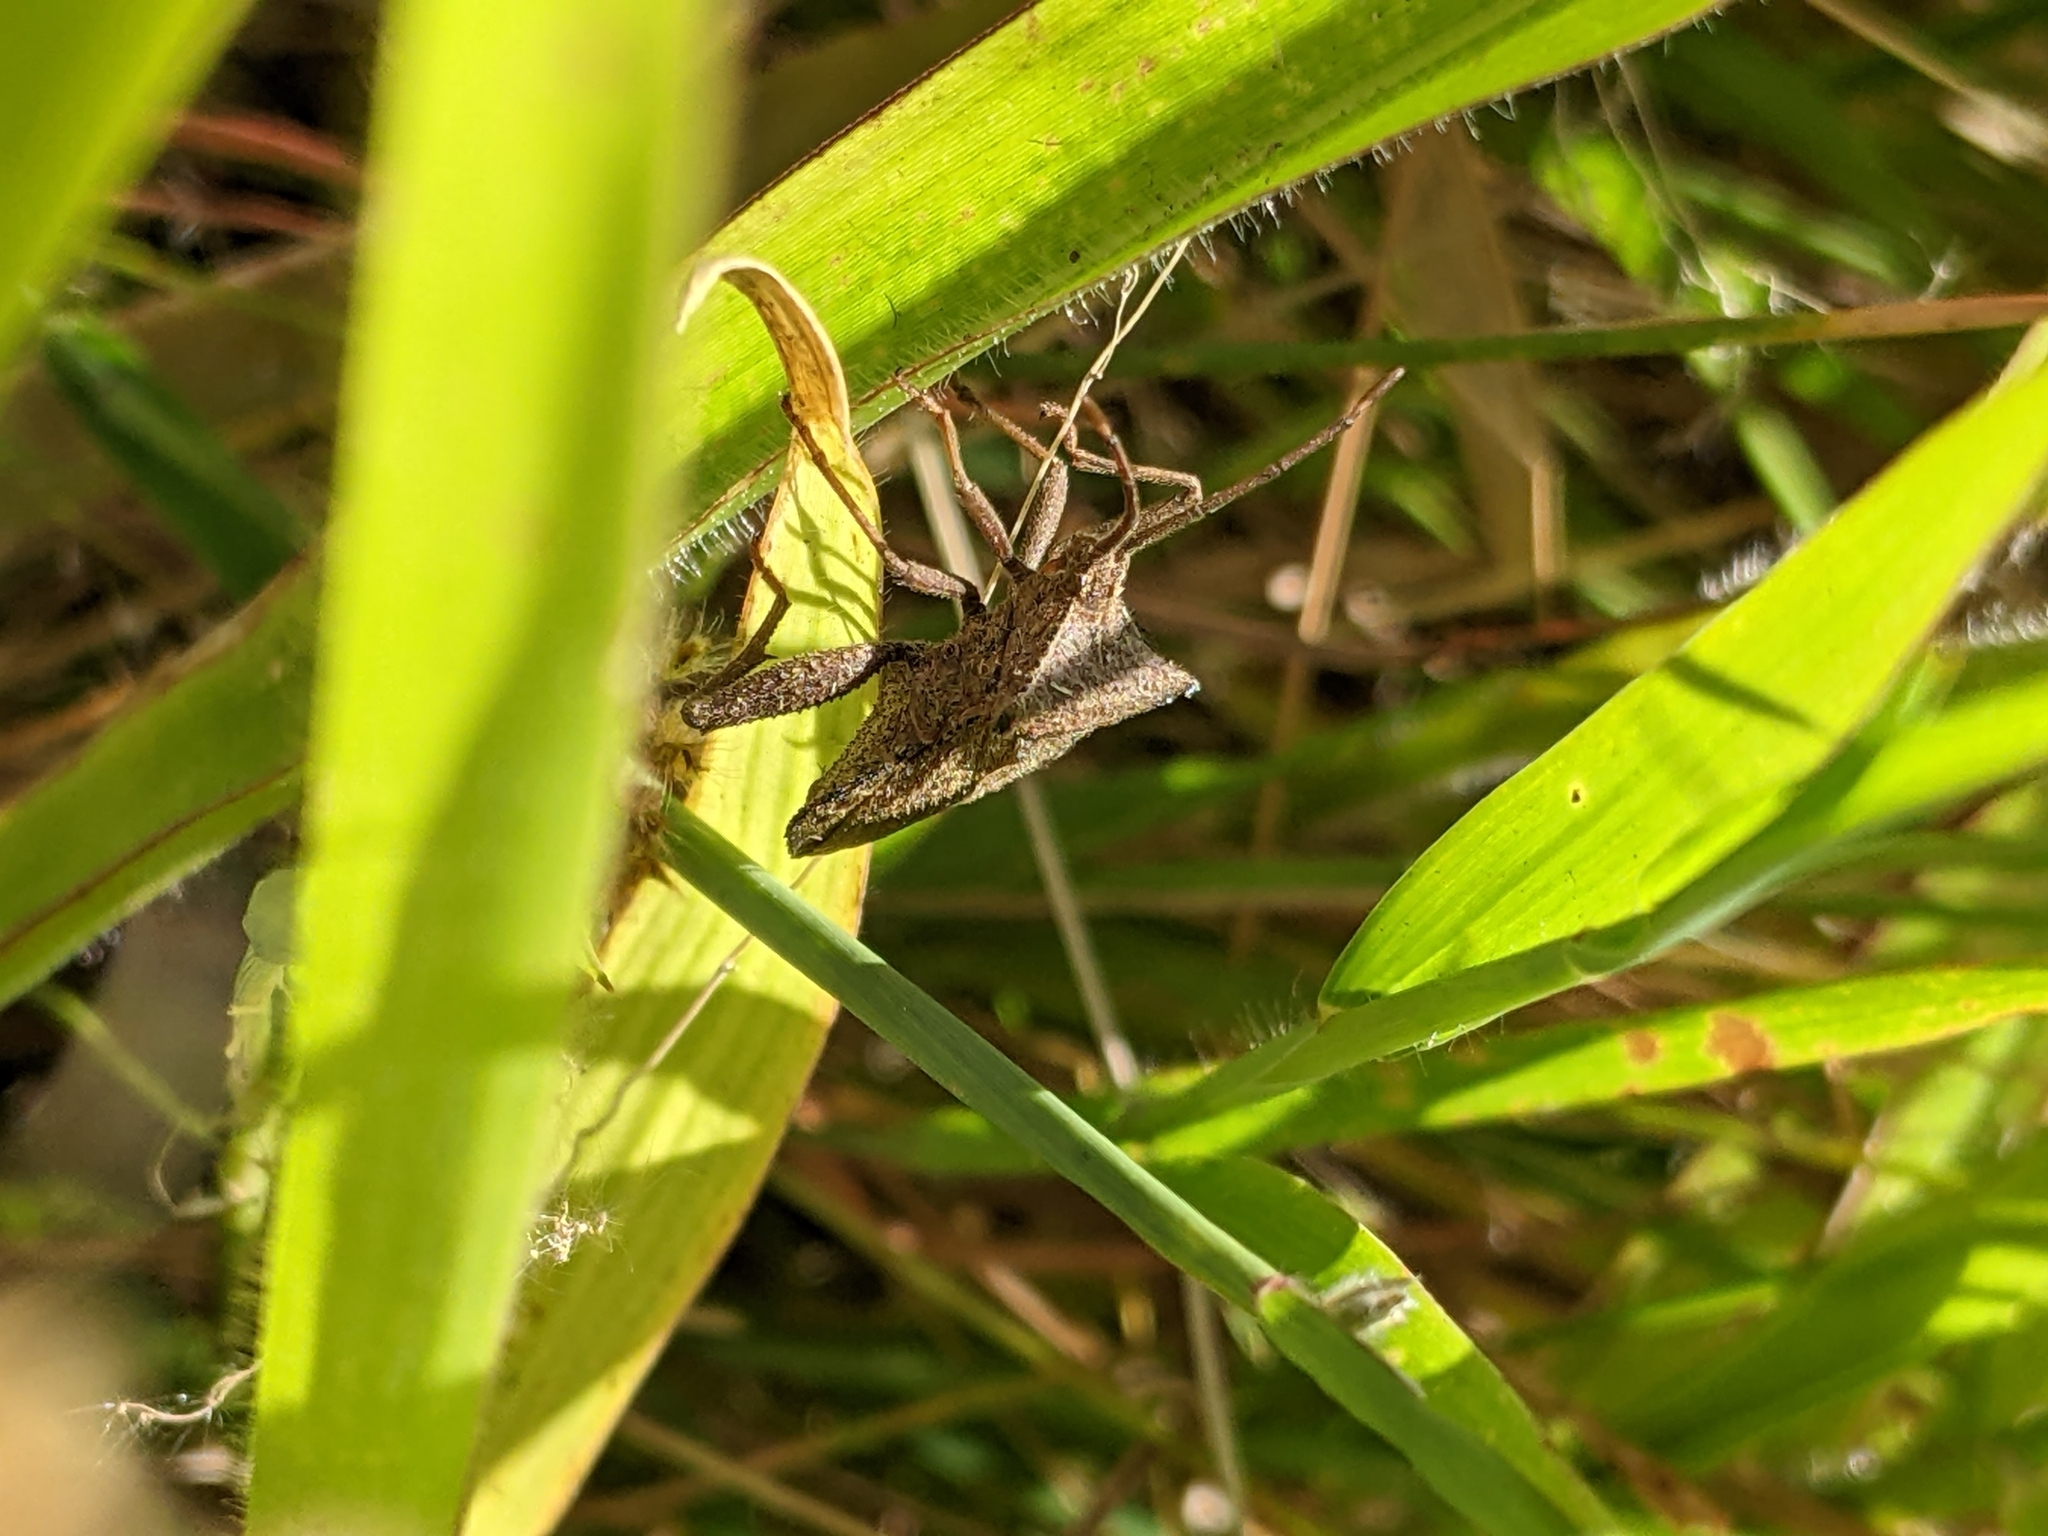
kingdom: Animalia
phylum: Arthropoda
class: Insecta
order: Hemiptera
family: Coreidae
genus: Acroelytrum
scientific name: Acroelytrum muricatum
